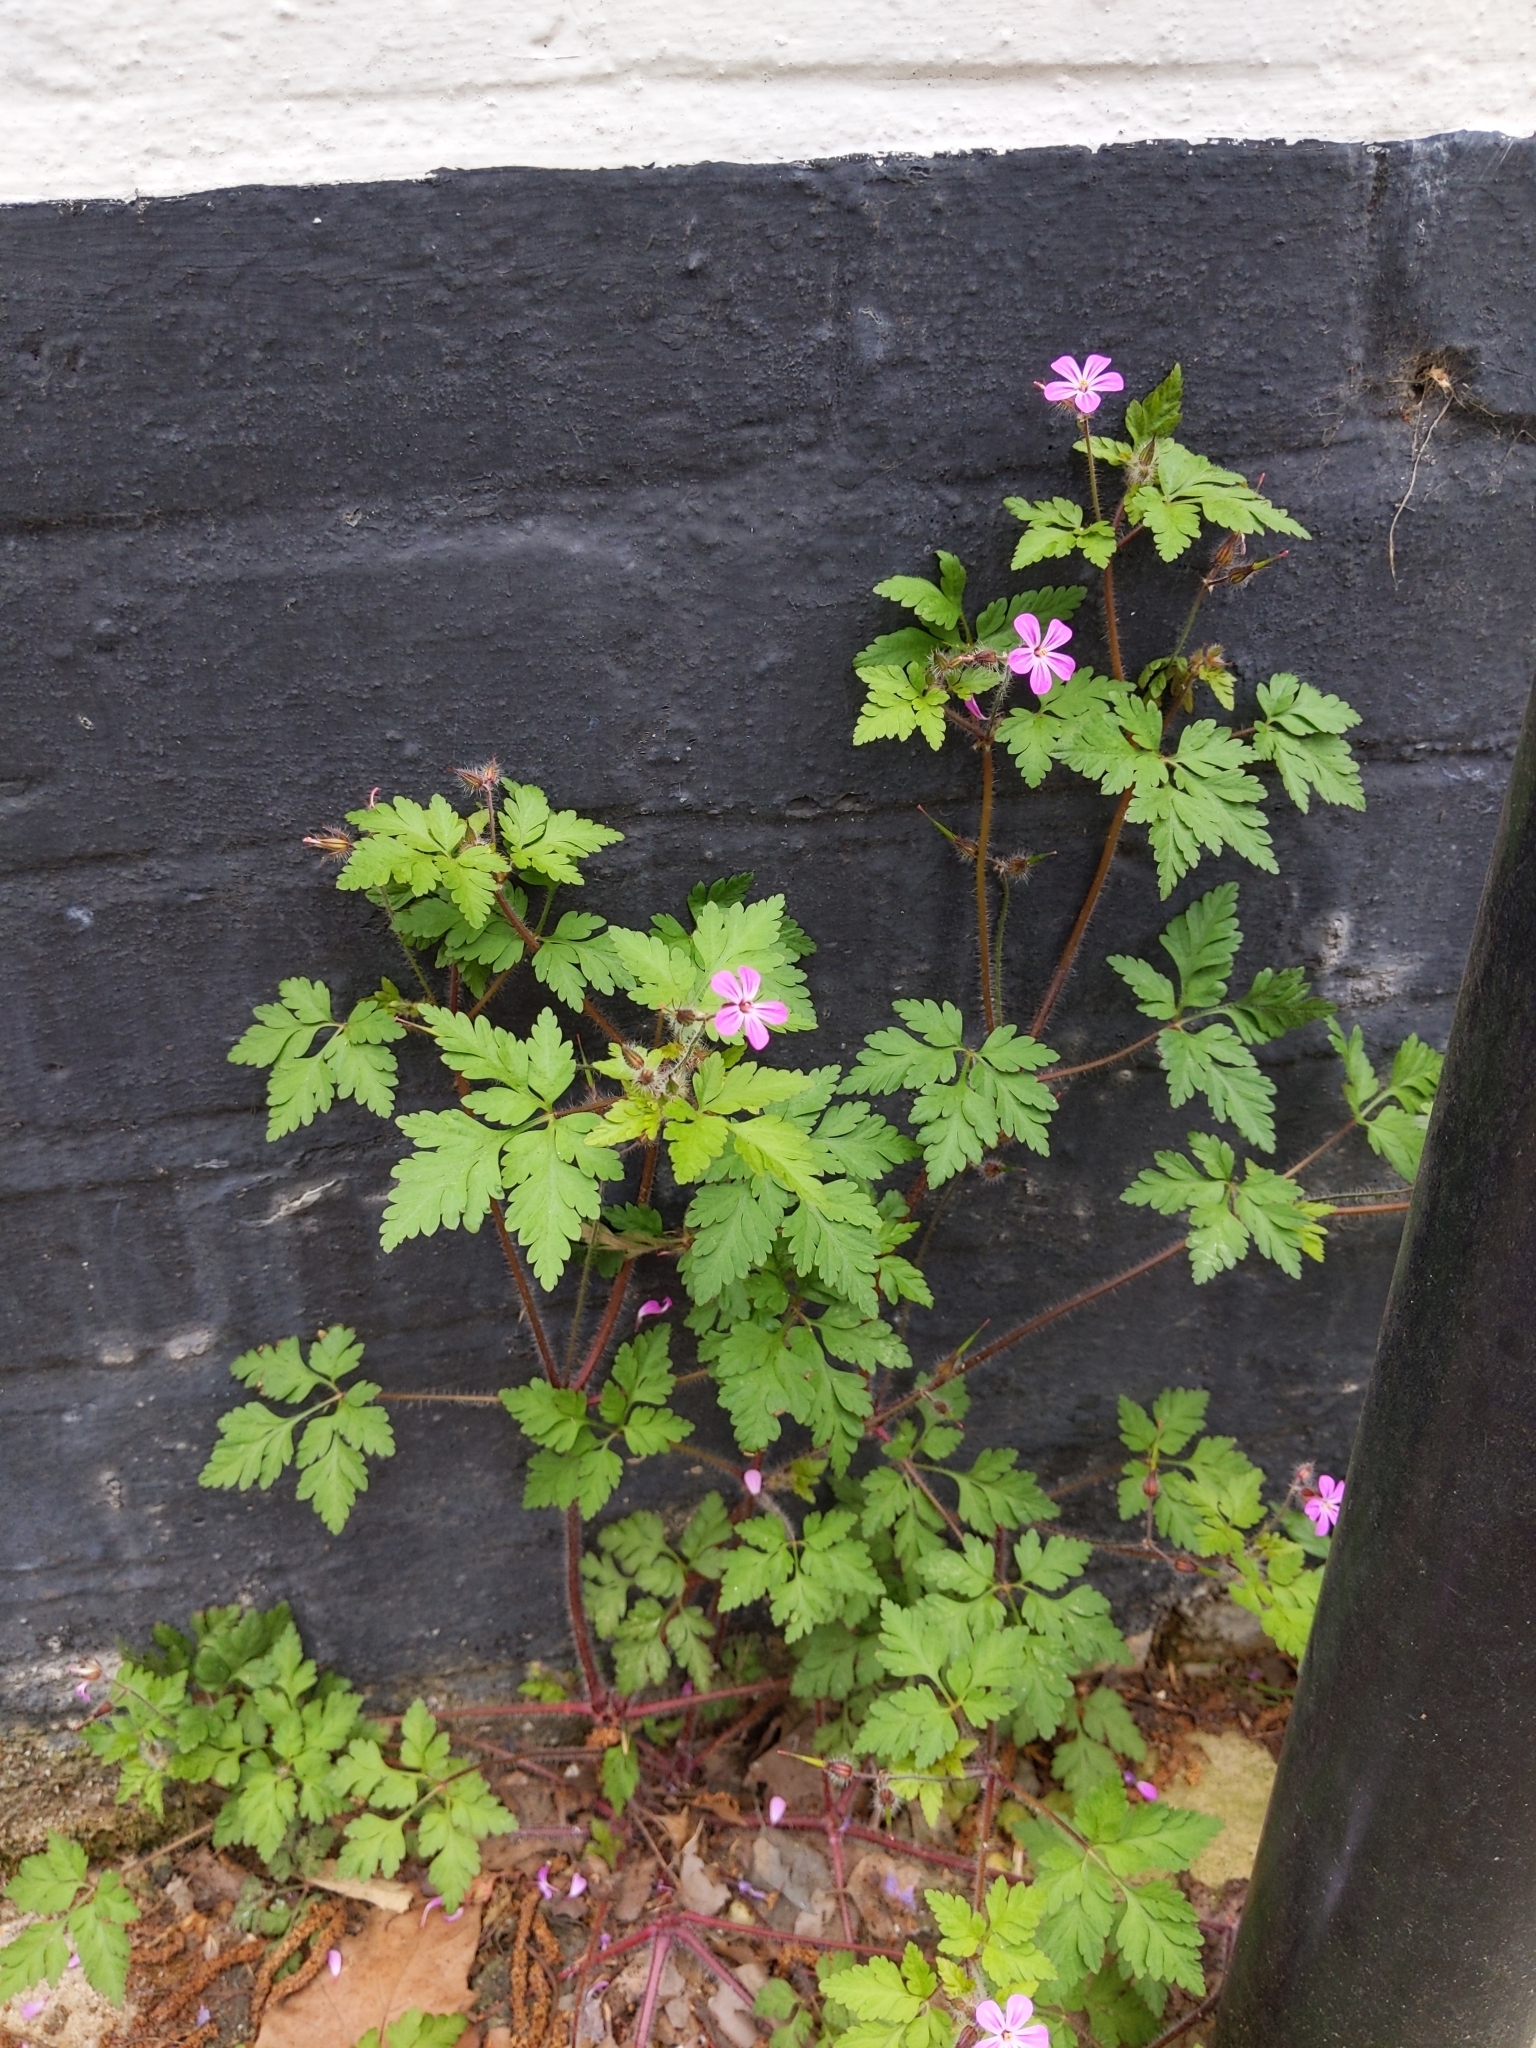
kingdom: Plantae
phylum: Tracheophyta
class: Magnoliopsida
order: Geraniales
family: Geraniaceae
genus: Geranium
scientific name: Geranium robertianum
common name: Herb-robert
